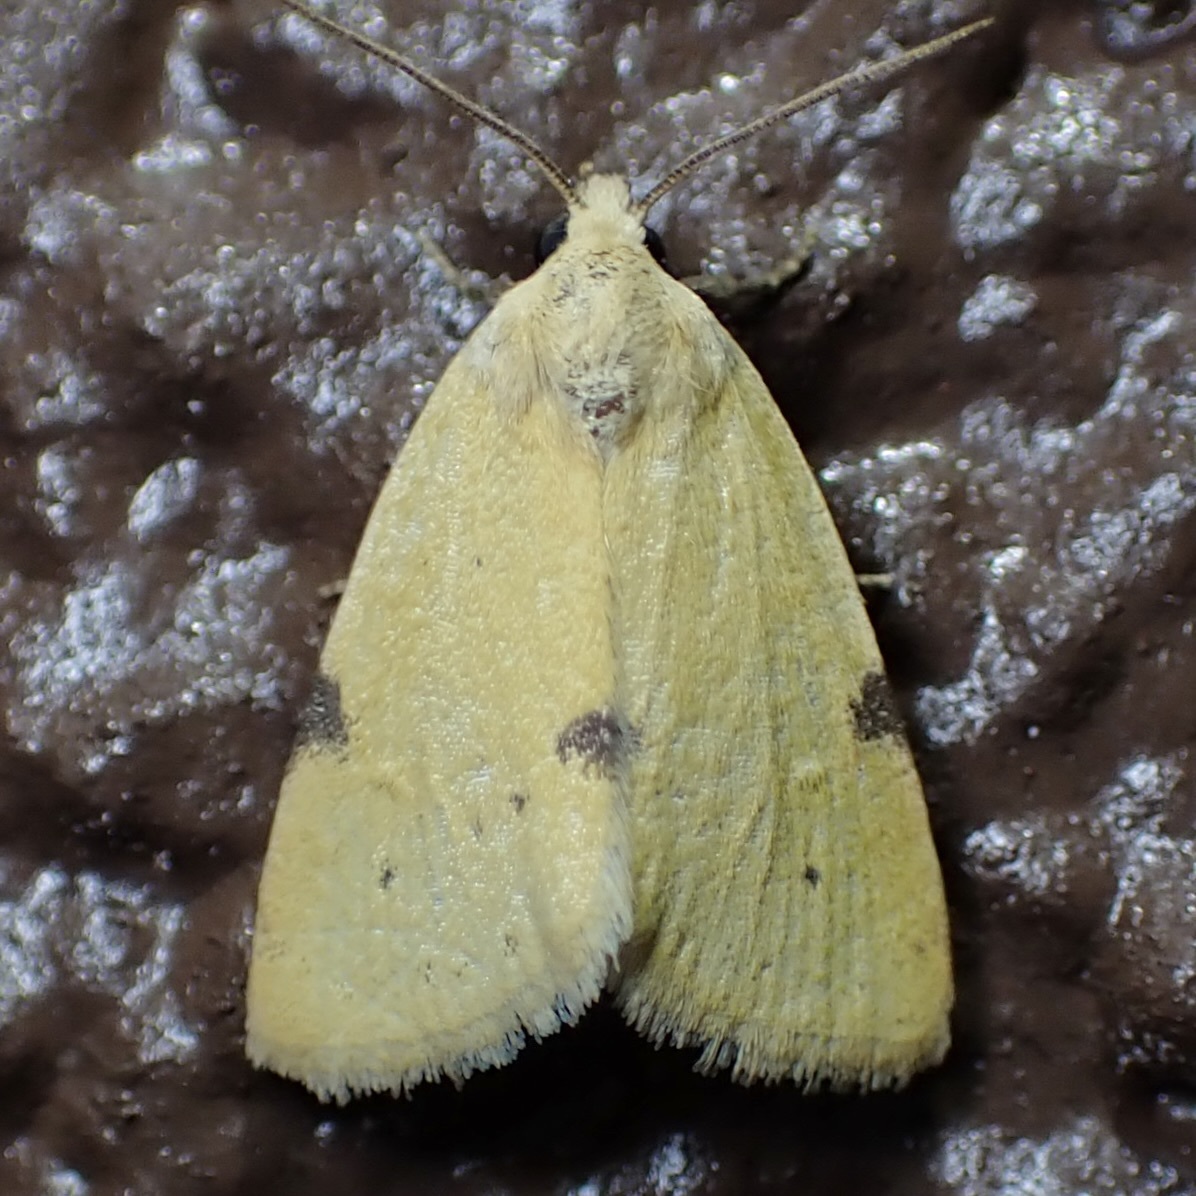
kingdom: Animalia
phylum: Arthropoda
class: Insecta
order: Lepidoptera
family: Noctuidae
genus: Azenia
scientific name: Azenia edentata
